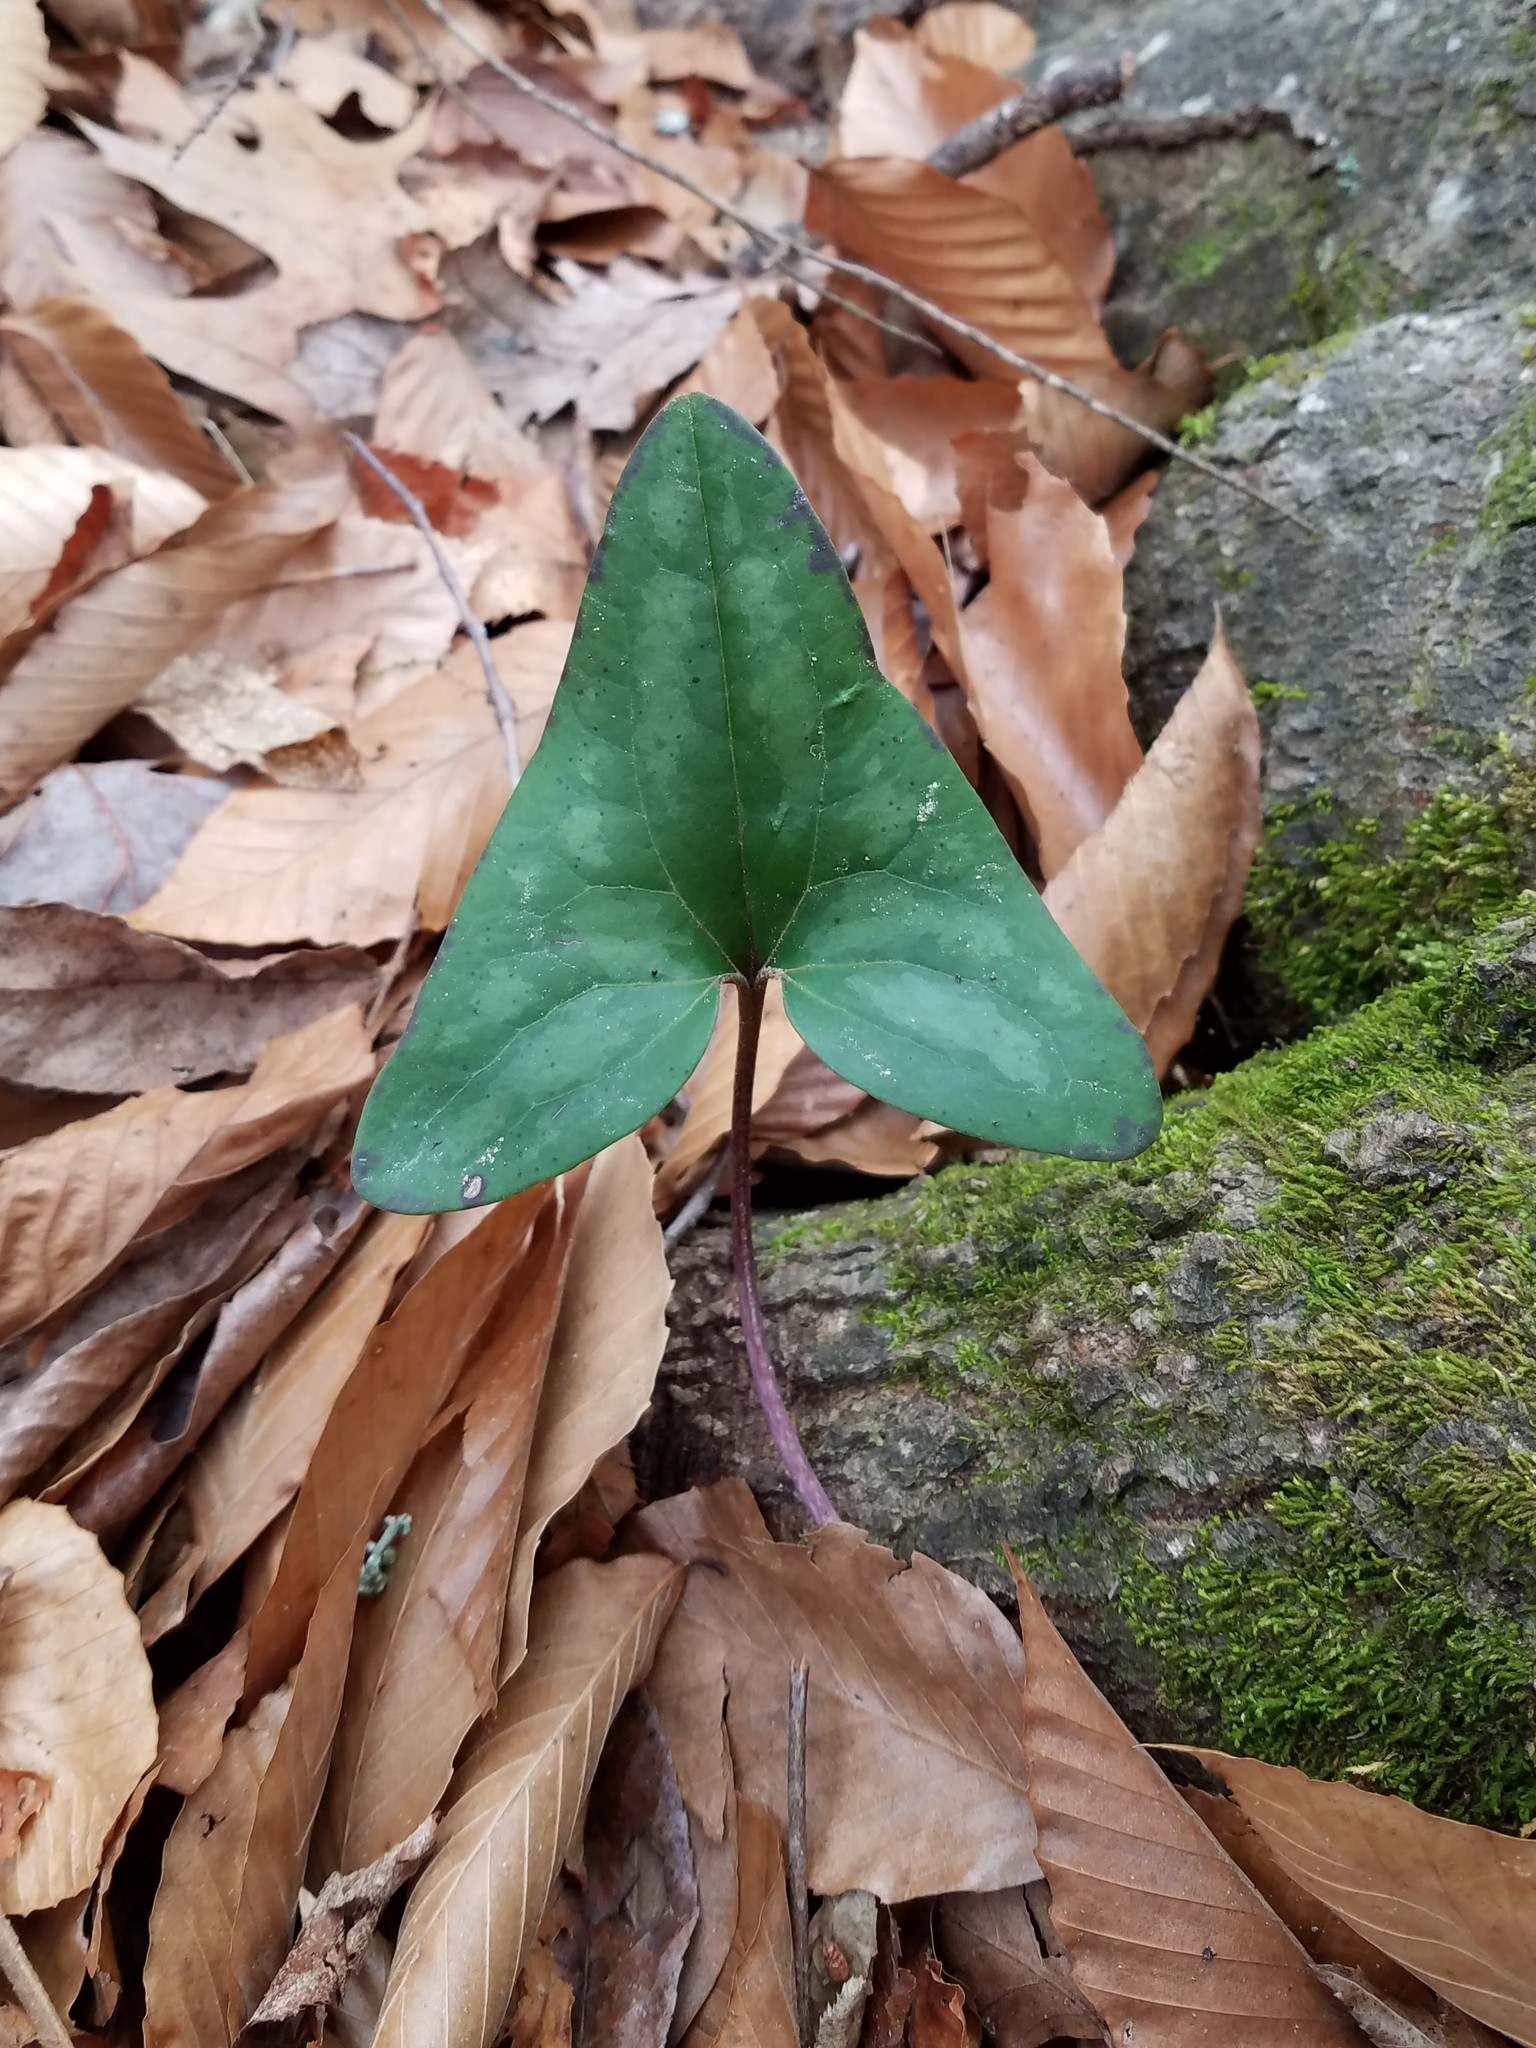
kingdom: Plantae
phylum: Tracheophyta
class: Magnoliopsida
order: Piperales
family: Aristolochiaceae
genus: Hexastylis
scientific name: Hexastylis arifolia
